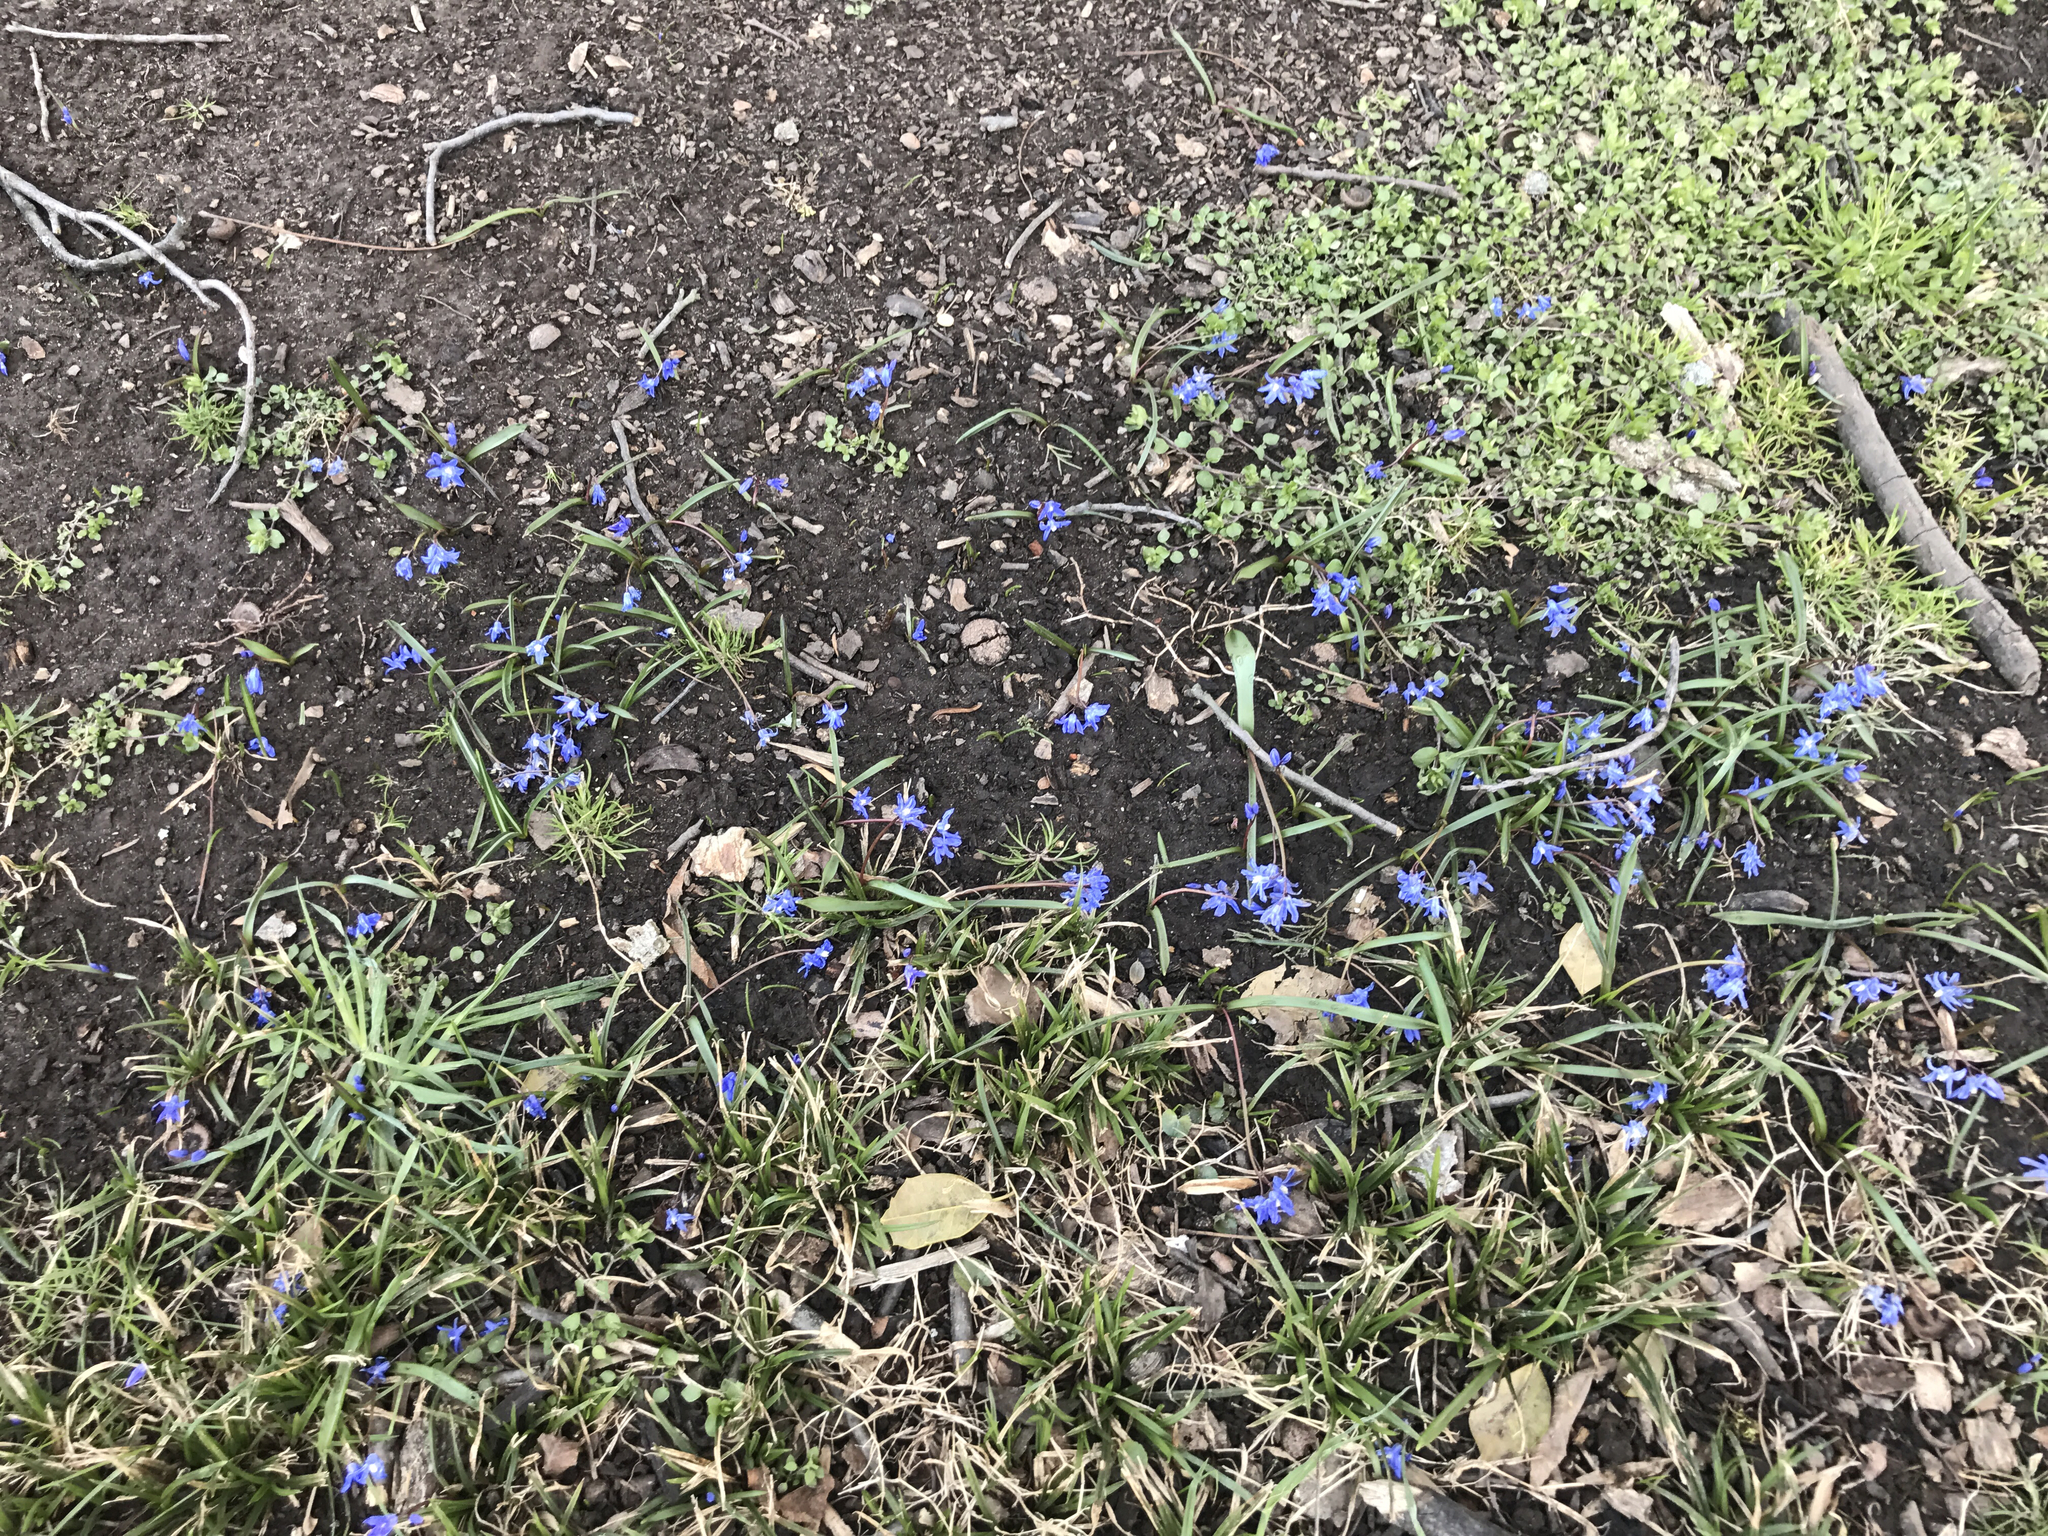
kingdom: Plantae
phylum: Tracheophyta
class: Liliopsida
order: Asparagales
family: Asparagaceae
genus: Scilla
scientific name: Scilla siberica
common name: Siberian squill
